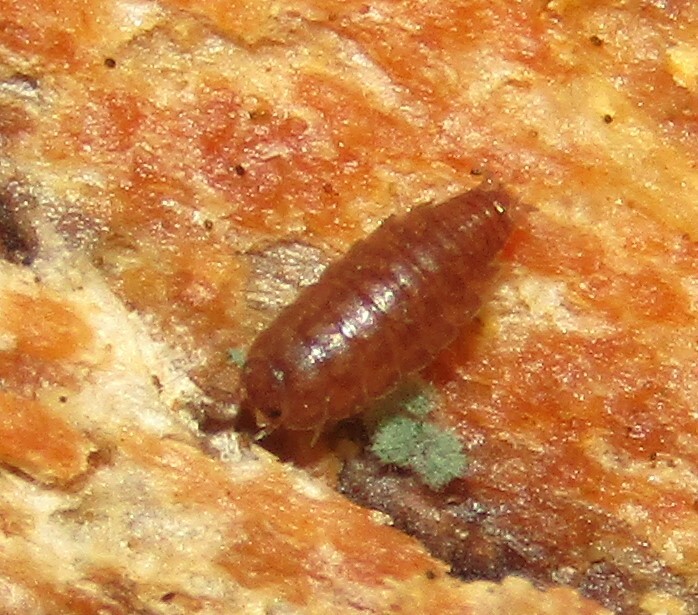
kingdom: Animalia
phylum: Arthropoda
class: Malacostraca
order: Isopoda
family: Trichoniscidae
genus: Hyloniscus
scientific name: Hyloniscus riparius
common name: Isopod
